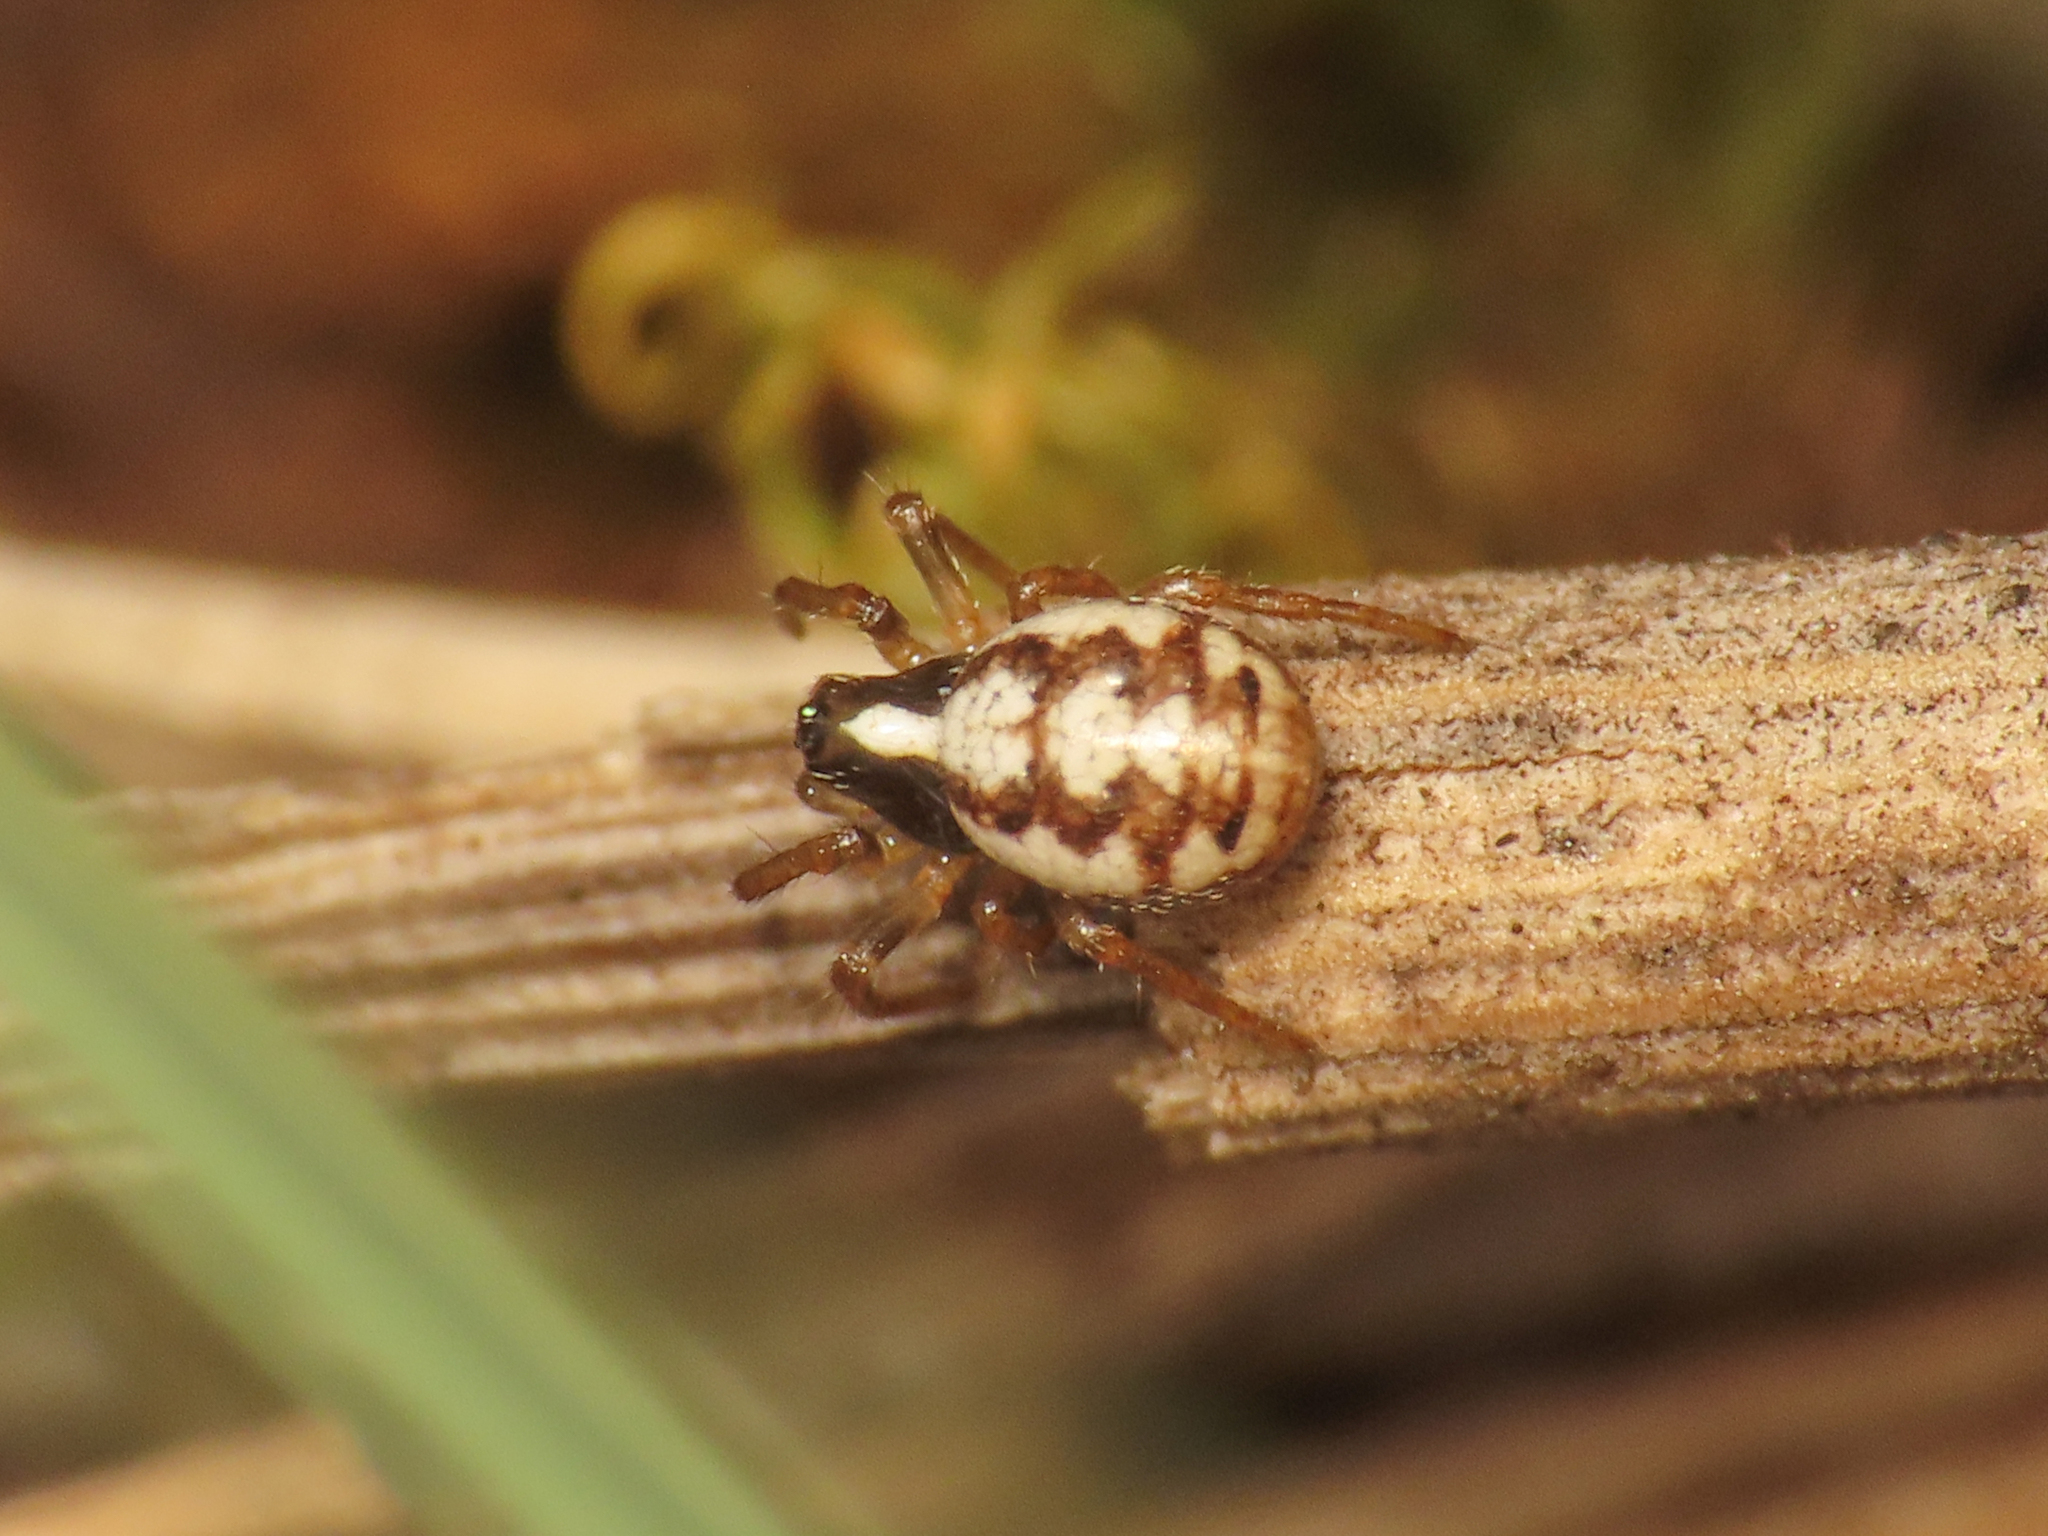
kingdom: Animalia
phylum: Arthropoda
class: Arachnida
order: Araneae
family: Araneidae
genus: Hypsosinga
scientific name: Hypsosinga albovittata
